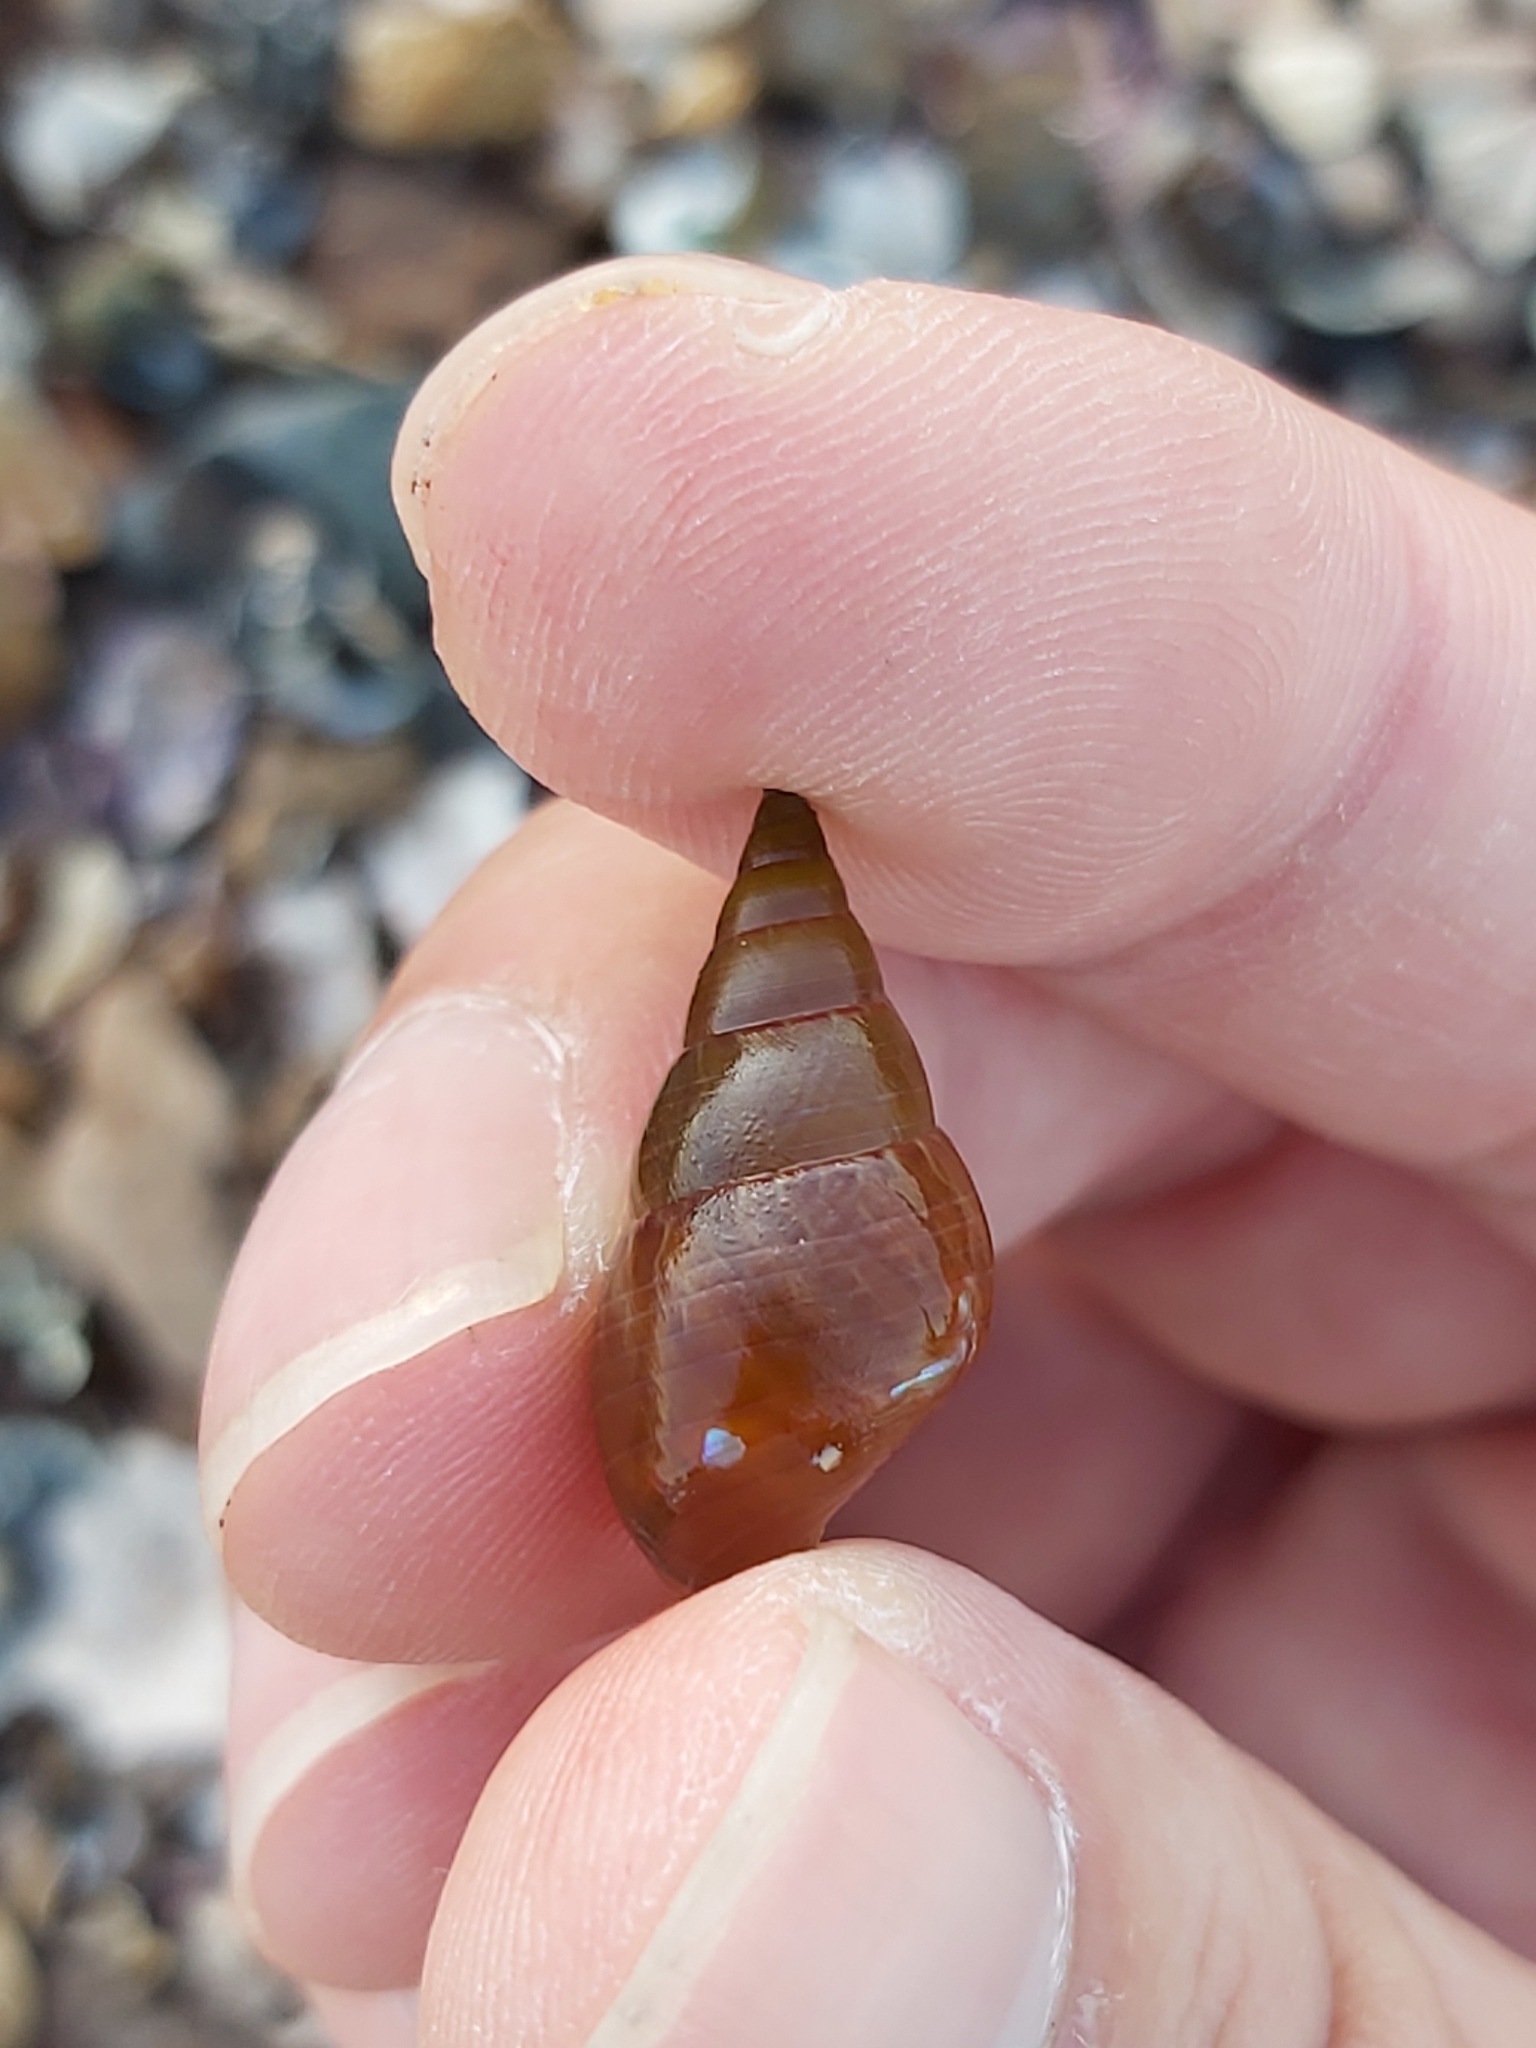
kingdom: Animalia
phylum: Mollusca
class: Gastropoda
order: Trochida
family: Trochidae
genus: Phasianotrochus
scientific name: Phasianotrochus eximius
